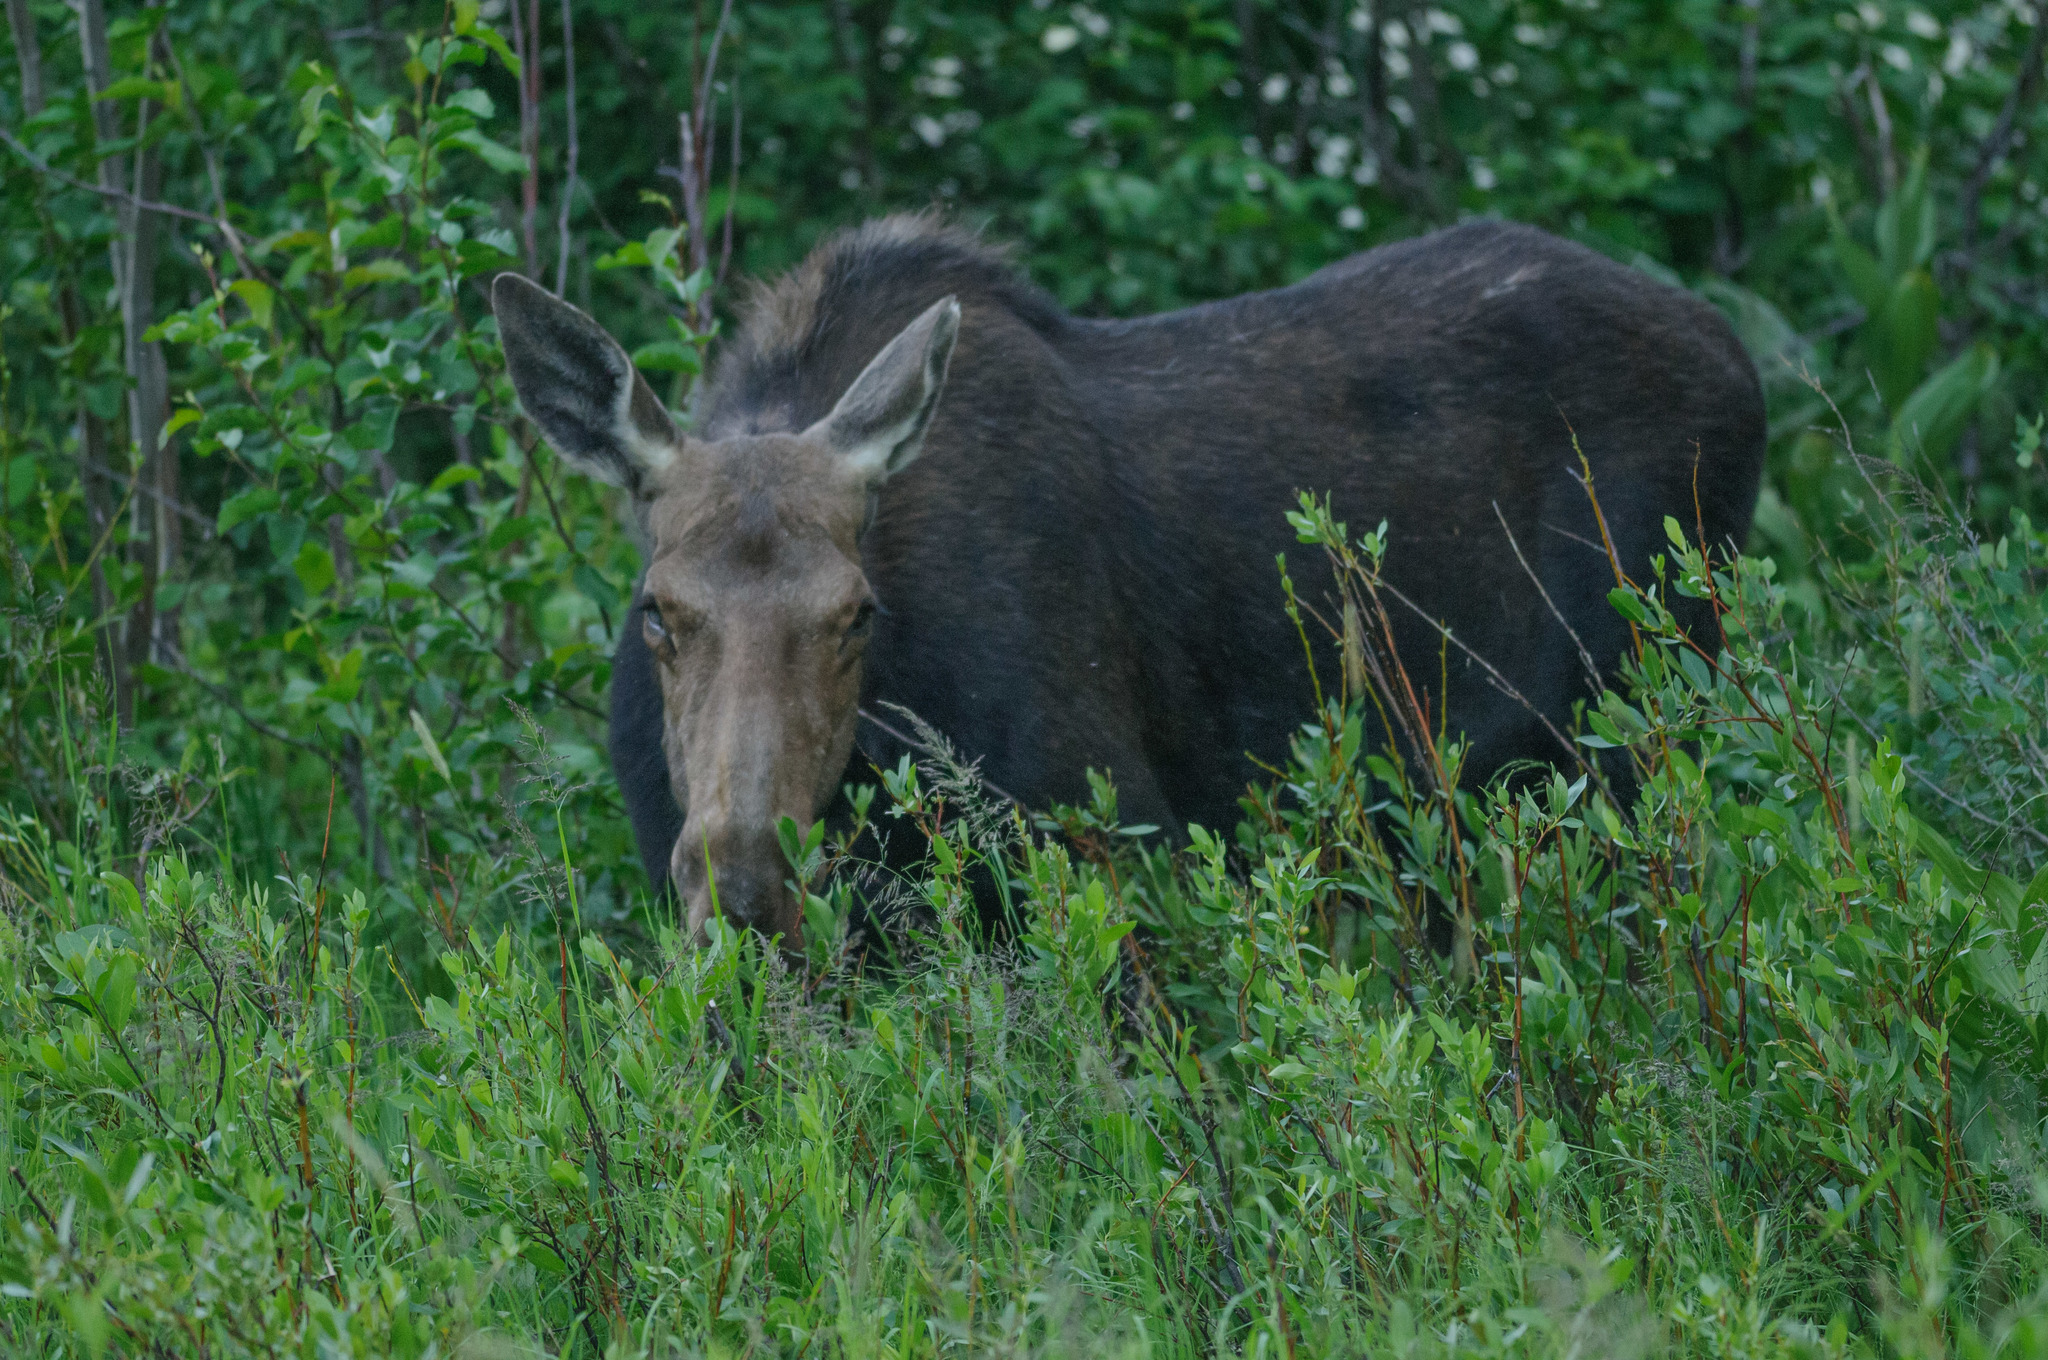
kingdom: Animalia
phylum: Chordata
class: Mammalia
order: Artiodactyla
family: Cervidae
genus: Alces
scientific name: Alces alces
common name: Moose
